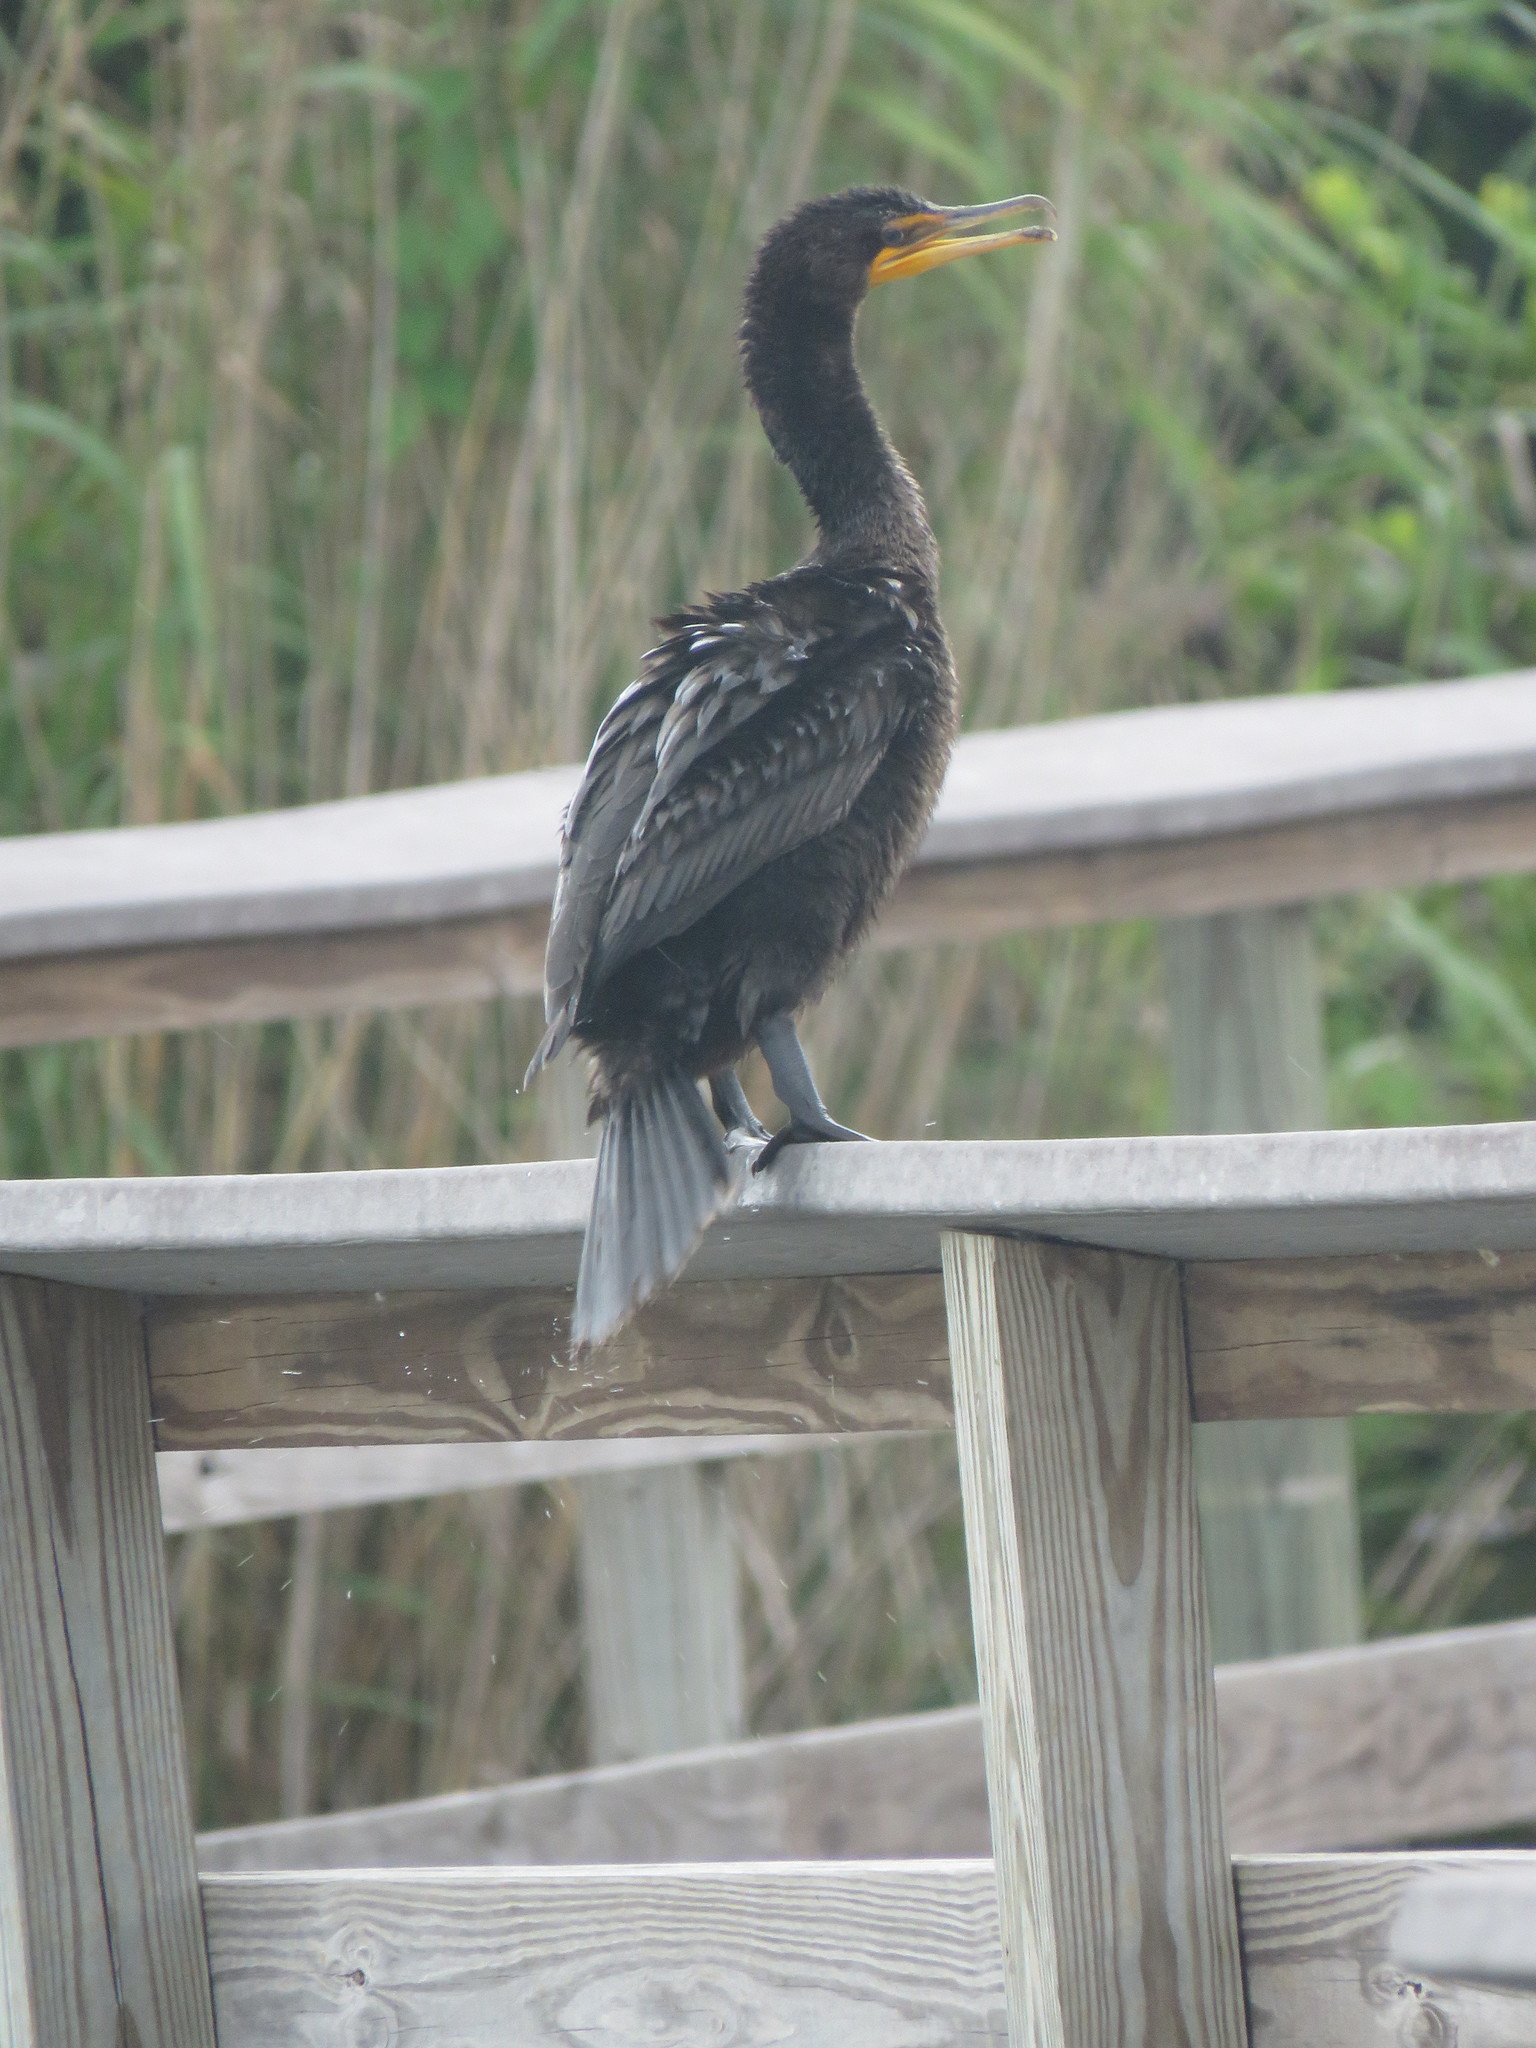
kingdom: Animalia
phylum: Chordata
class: Aves
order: Suliformes
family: Phalacrocoracidae
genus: Phalacrocorax
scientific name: Phalacrocorax auritus
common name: Double-crested cormorant
